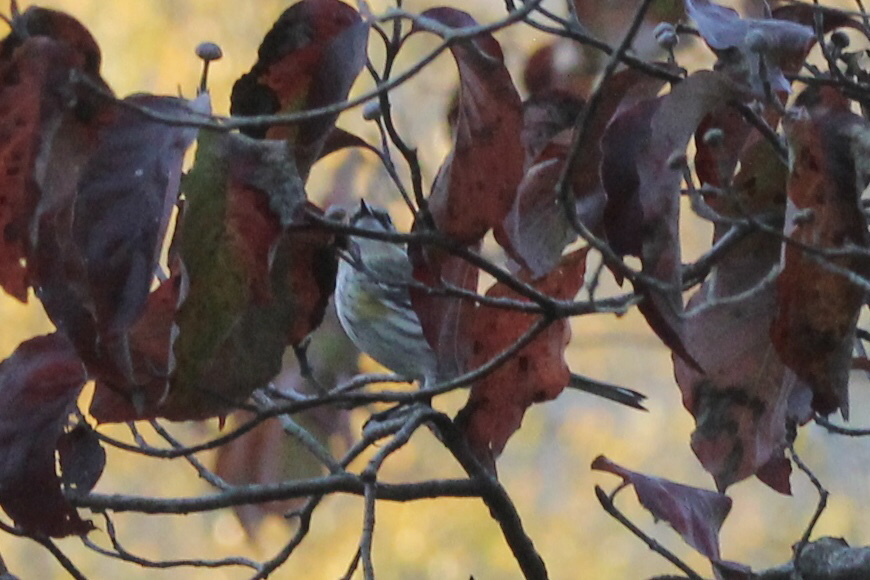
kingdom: Animalia
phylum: Chordata
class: Aves
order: Passeriformes
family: Parulidae
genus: Setophaga
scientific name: Setophaga coronata
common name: Myrtle warbler
